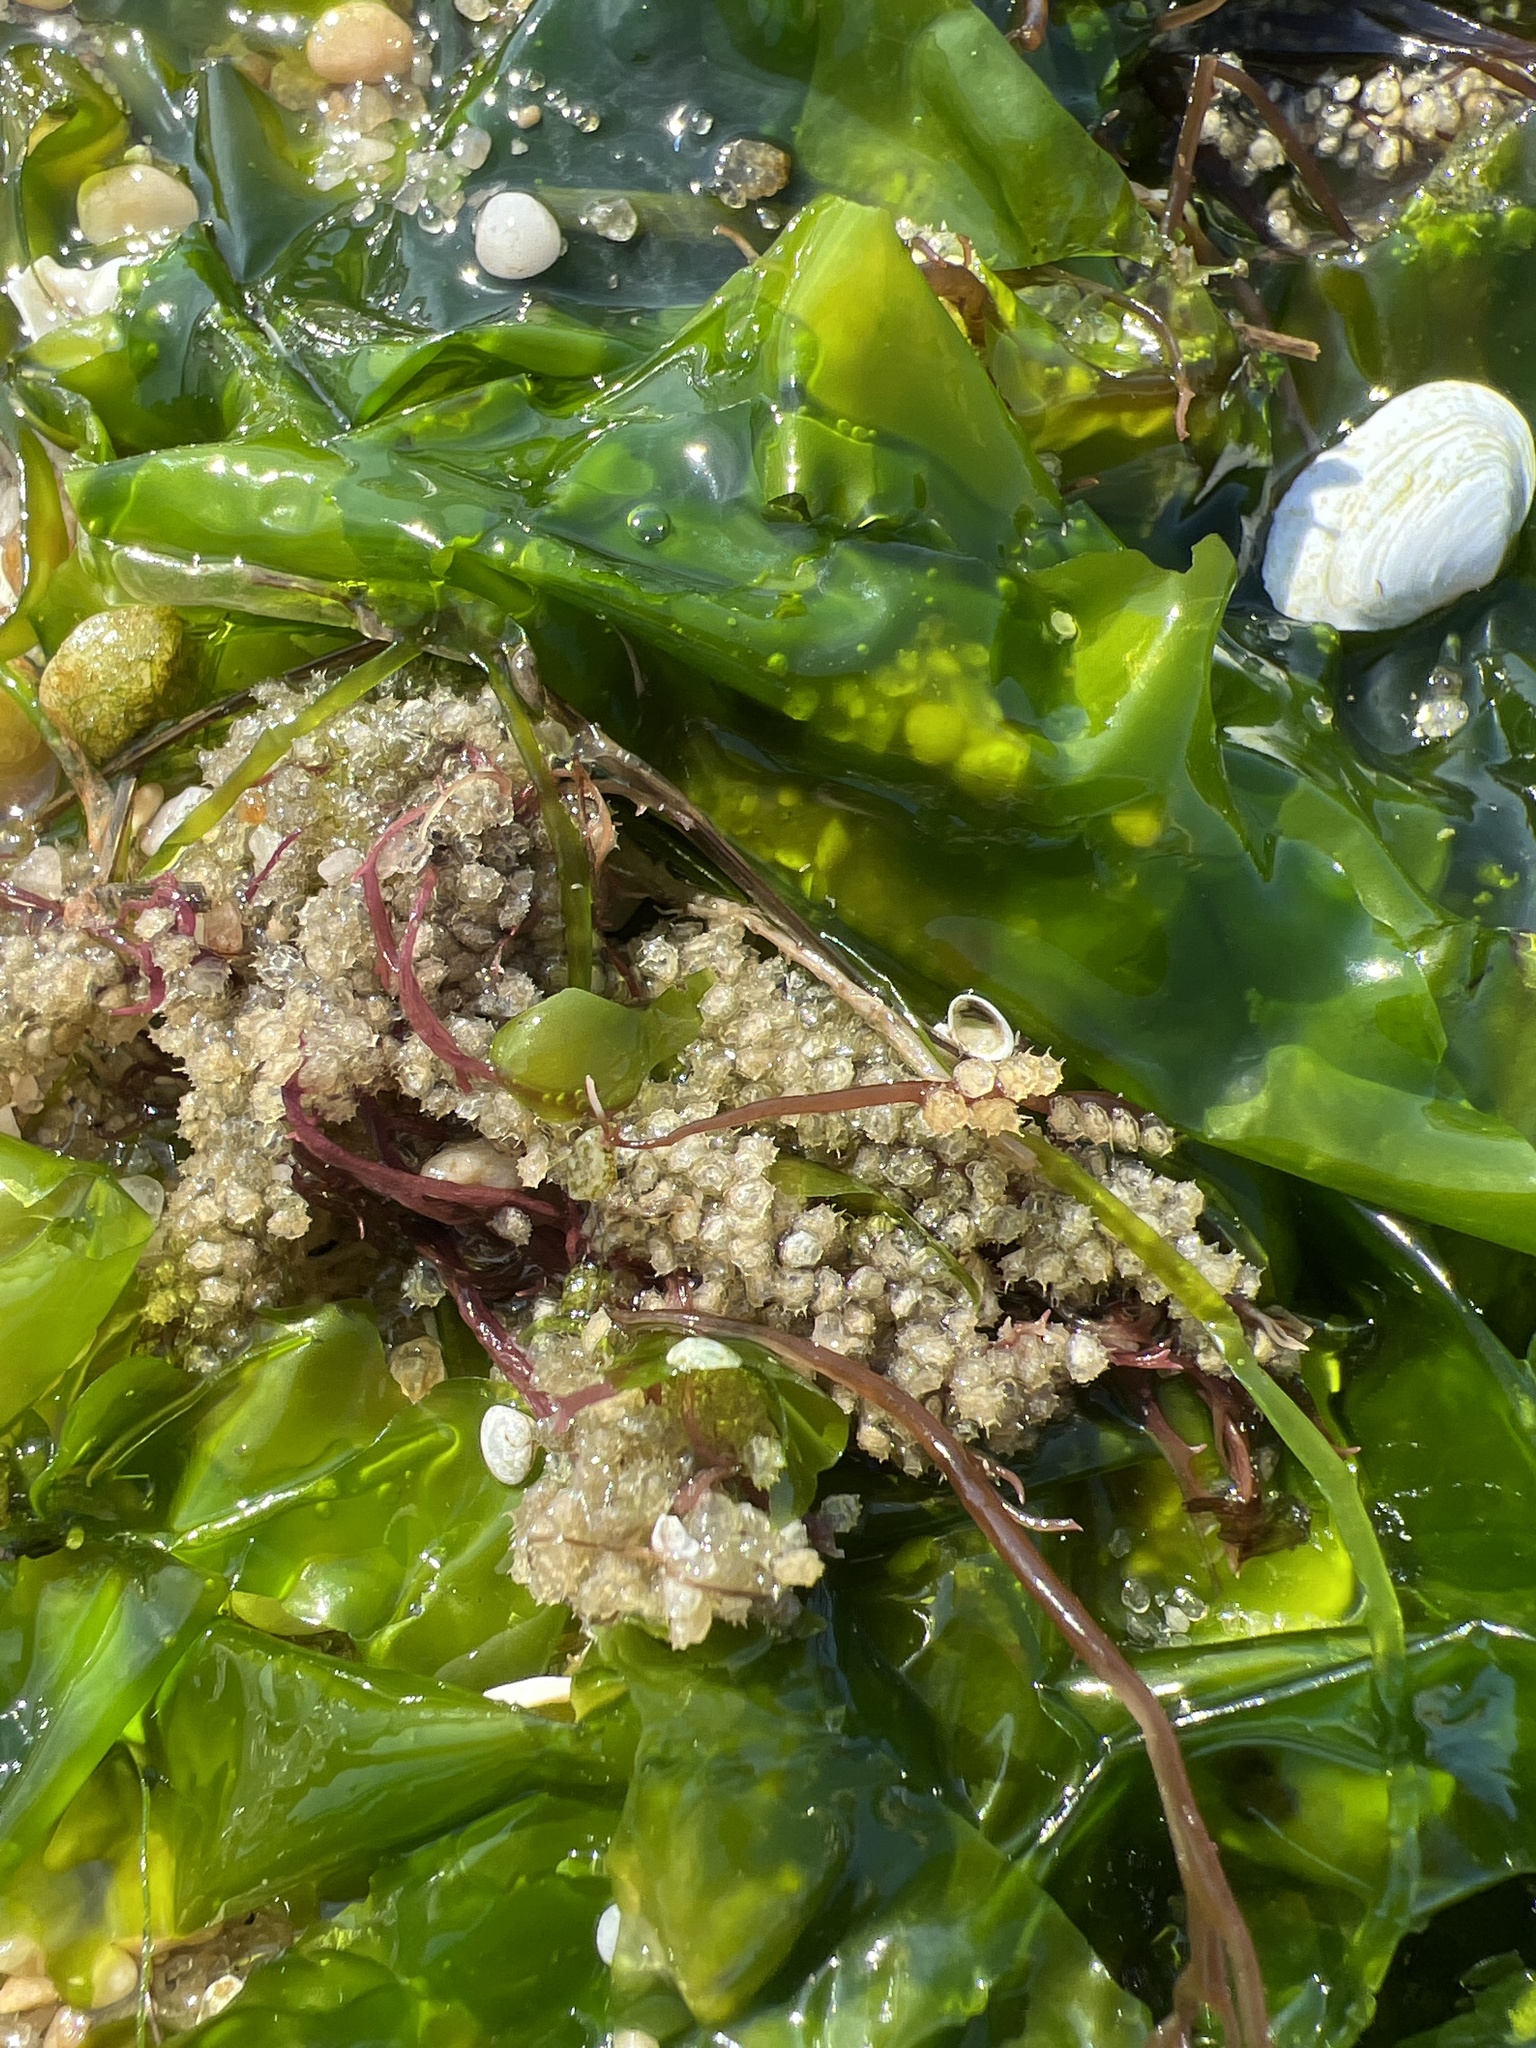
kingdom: Animalia
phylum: Mollusca
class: Gastropoda
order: Neogastropoda
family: Nassariidae
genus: Ilyanassa
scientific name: Ilyanassa obsoleta
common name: Eastern mudsnail
